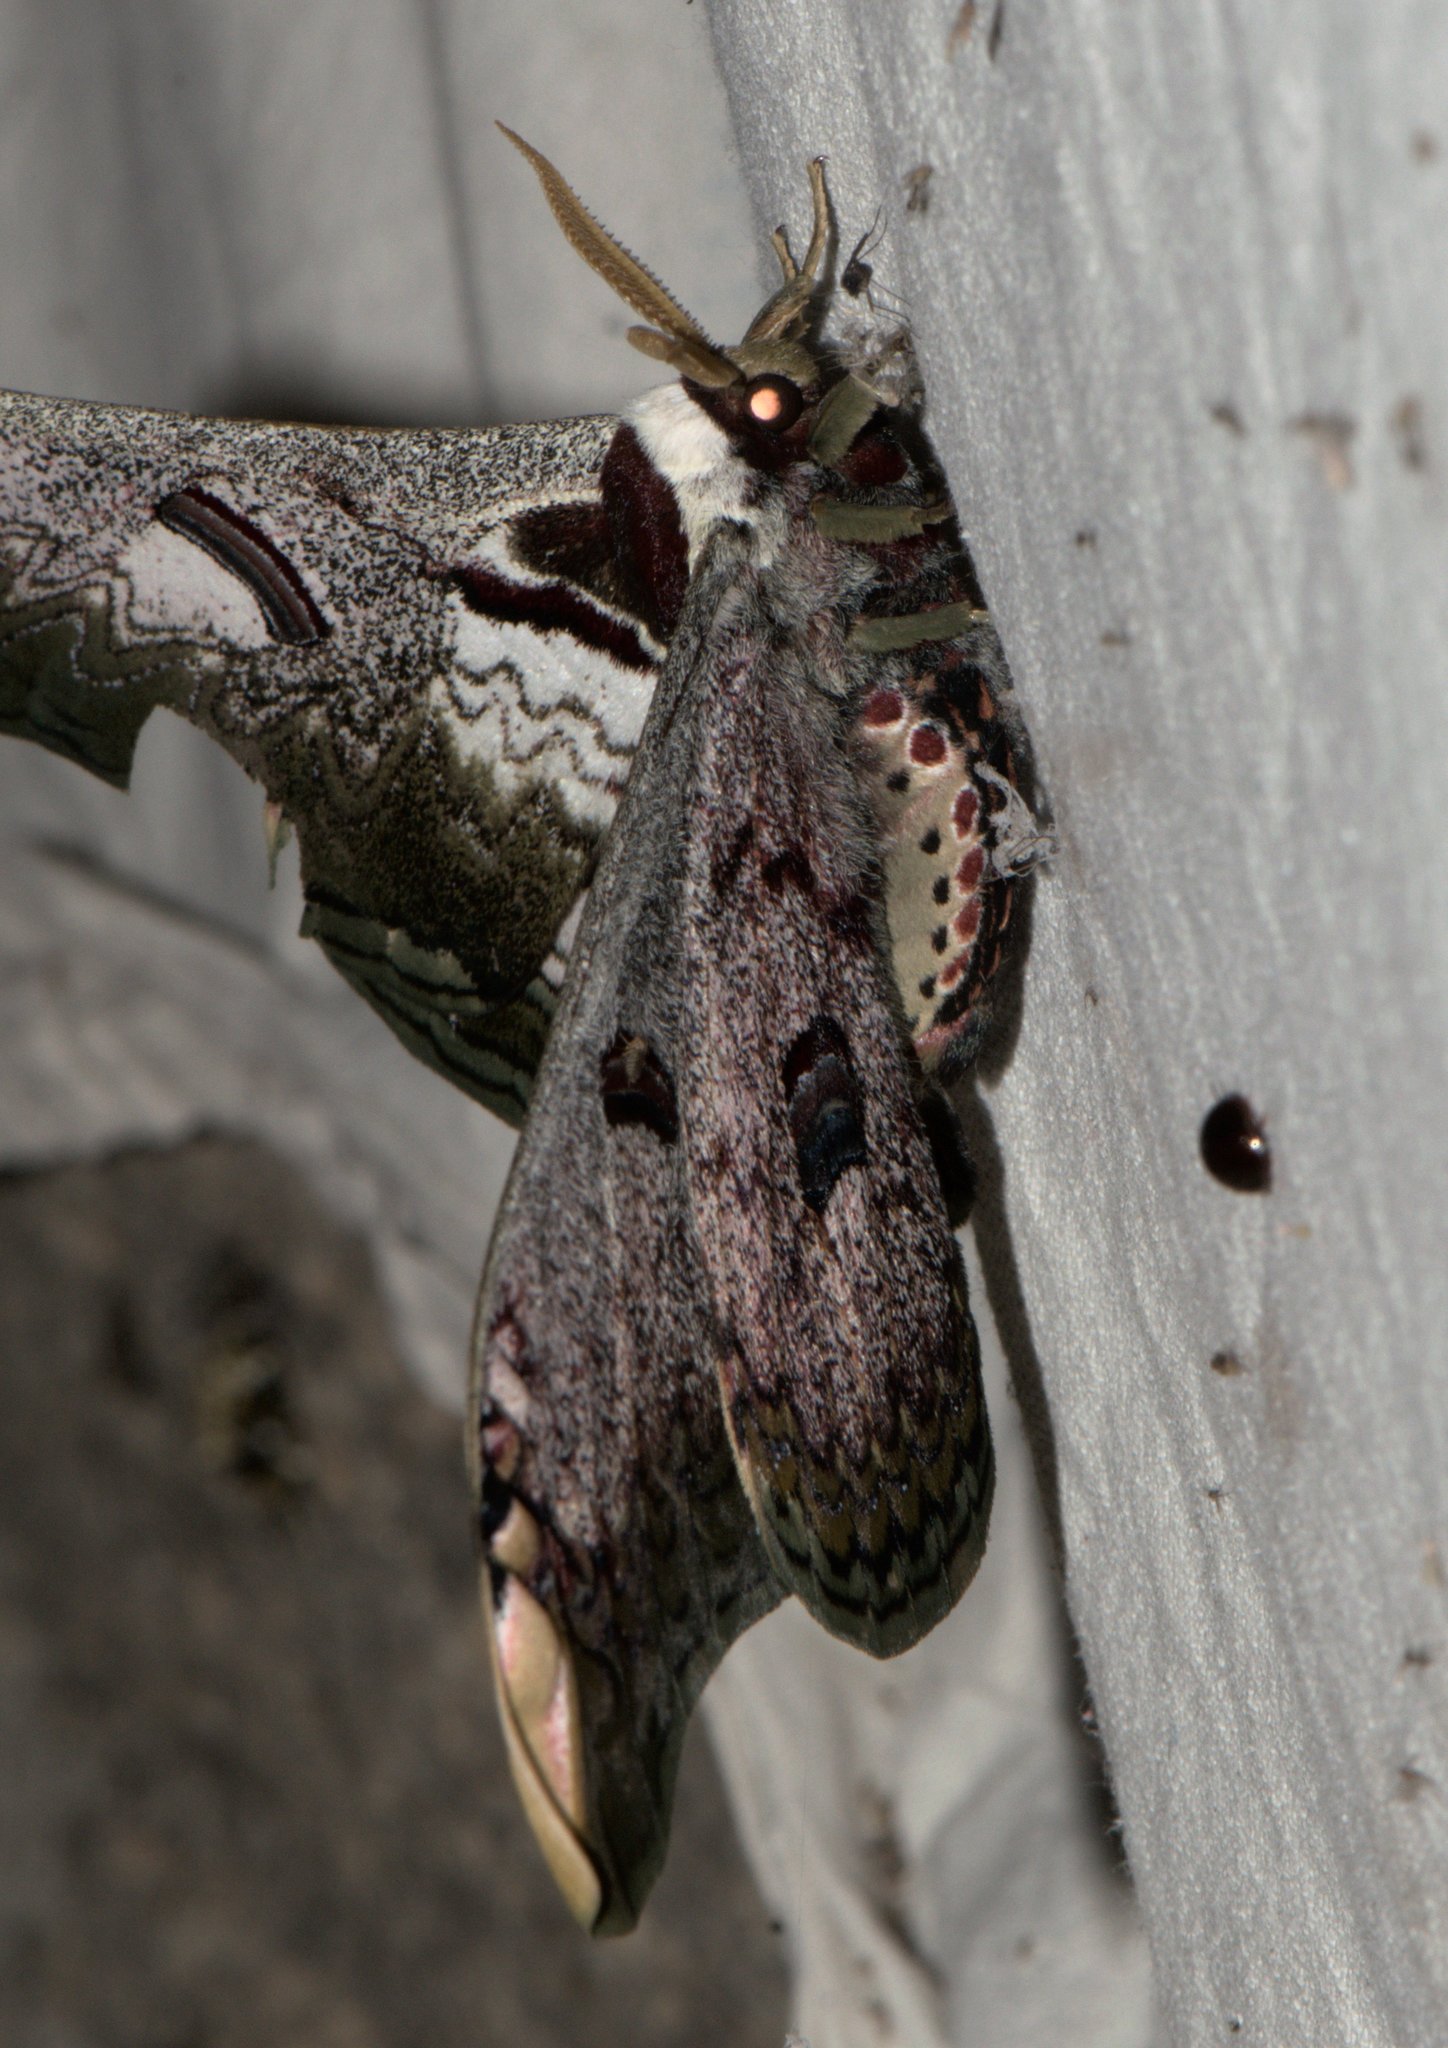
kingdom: Animalia
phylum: Arthropoda
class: Insecta
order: Lepidoptera
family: Saturniidae
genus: Saturnia
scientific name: Saturnia zuleika
